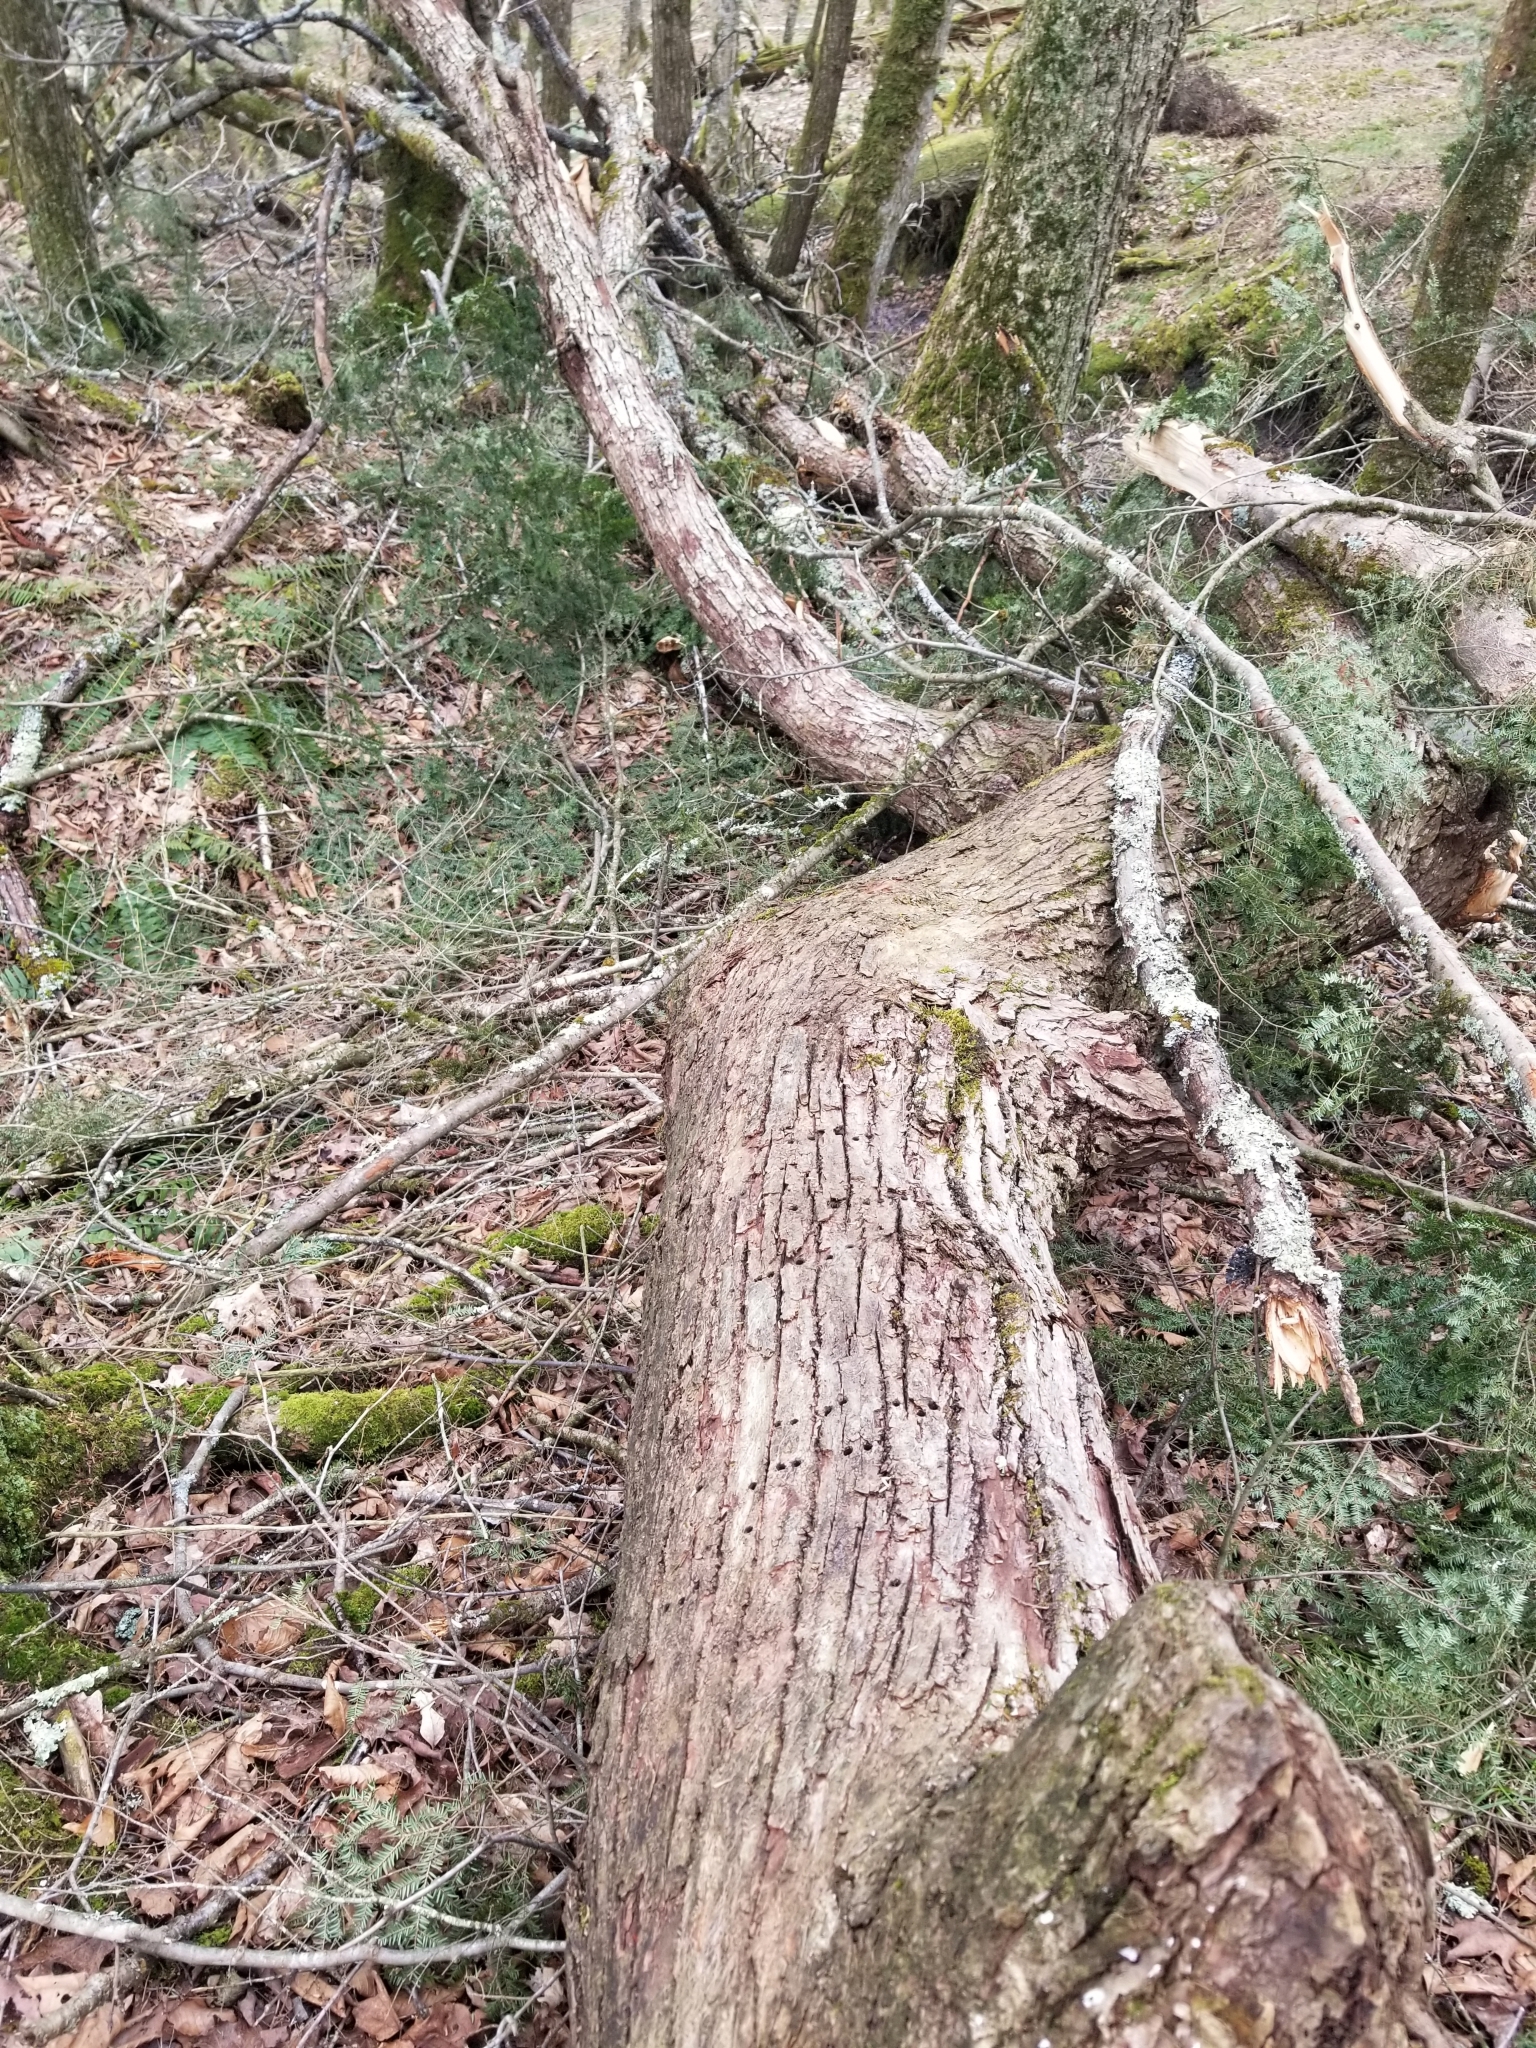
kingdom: Plantae
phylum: Tracheophyta
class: Magnoliopsida
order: Malvales
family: Malvaceae
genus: Tilia
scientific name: Tilia americana
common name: Basswood
